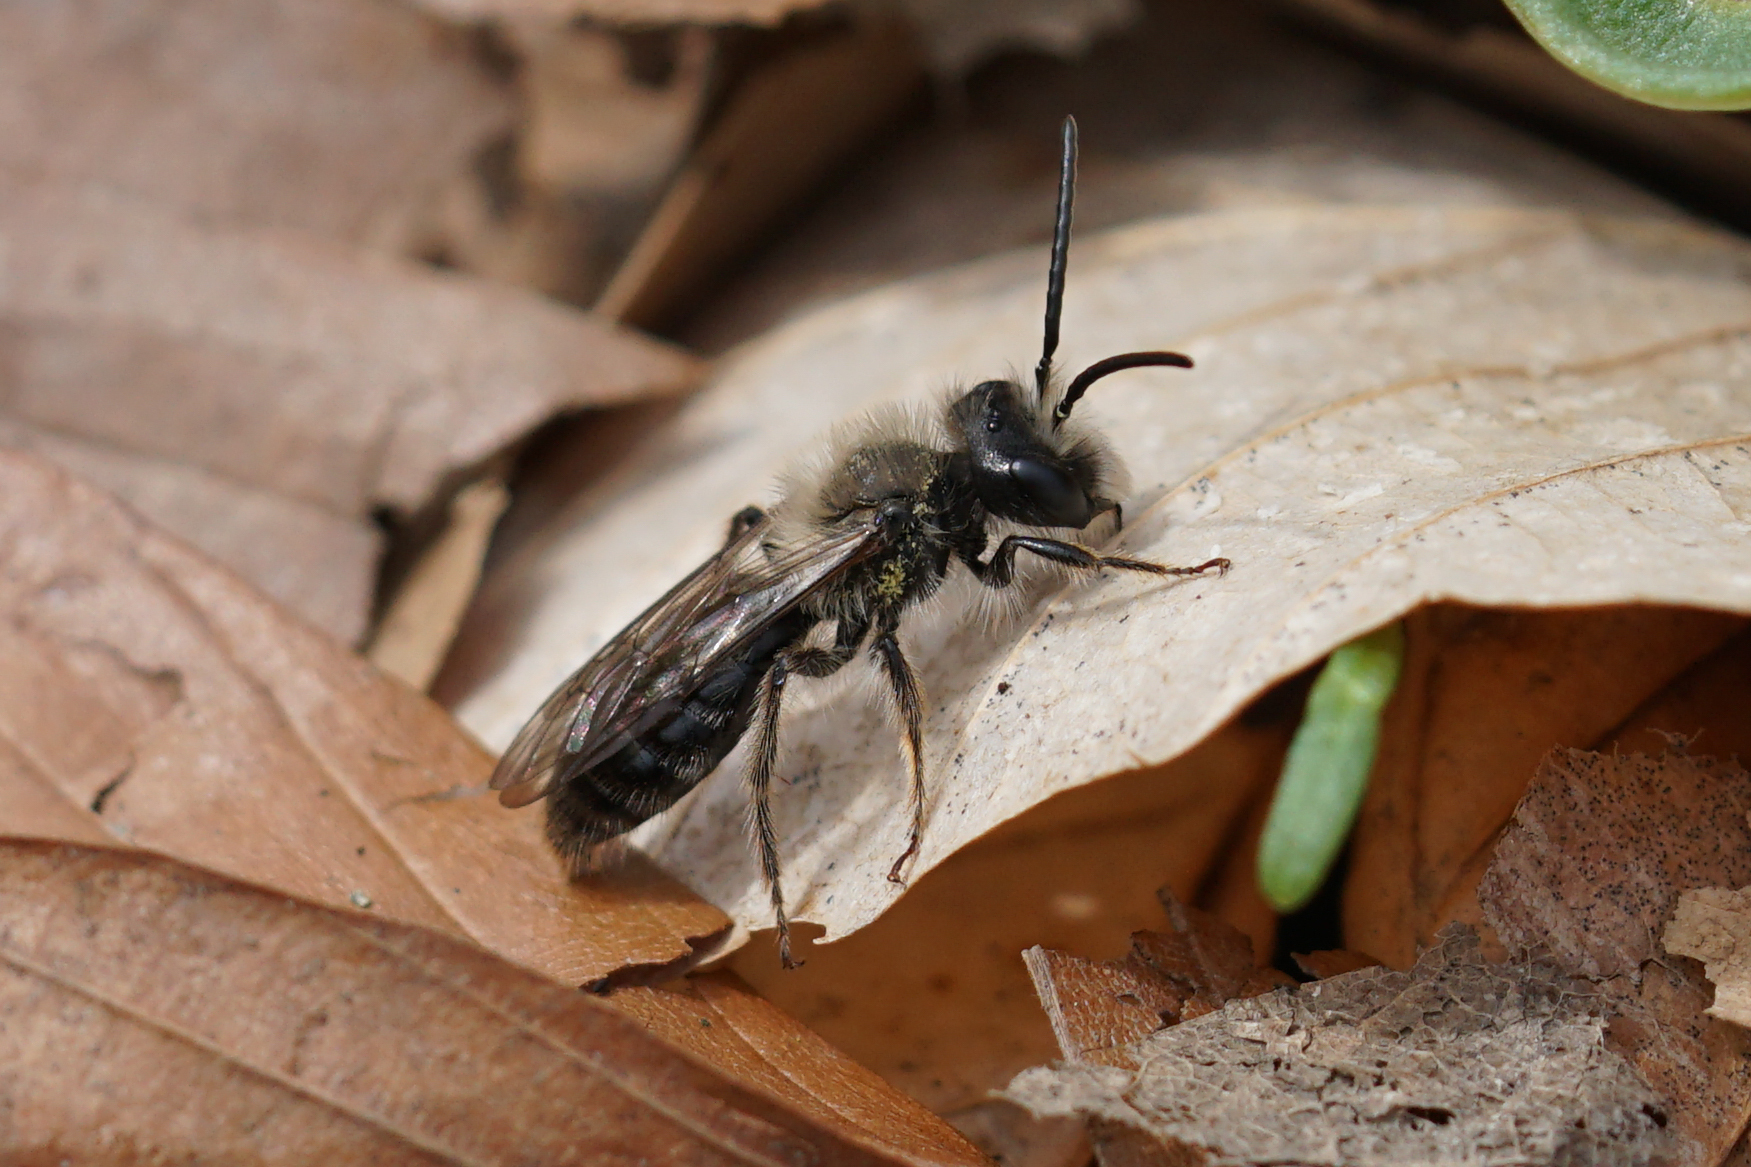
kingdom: Animalia
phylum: Arthropoda
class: Insecta
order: Hymenoptera
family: Andrenidae
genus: Andrena
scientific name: Andrena carlini
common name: Carlin's mining bee
